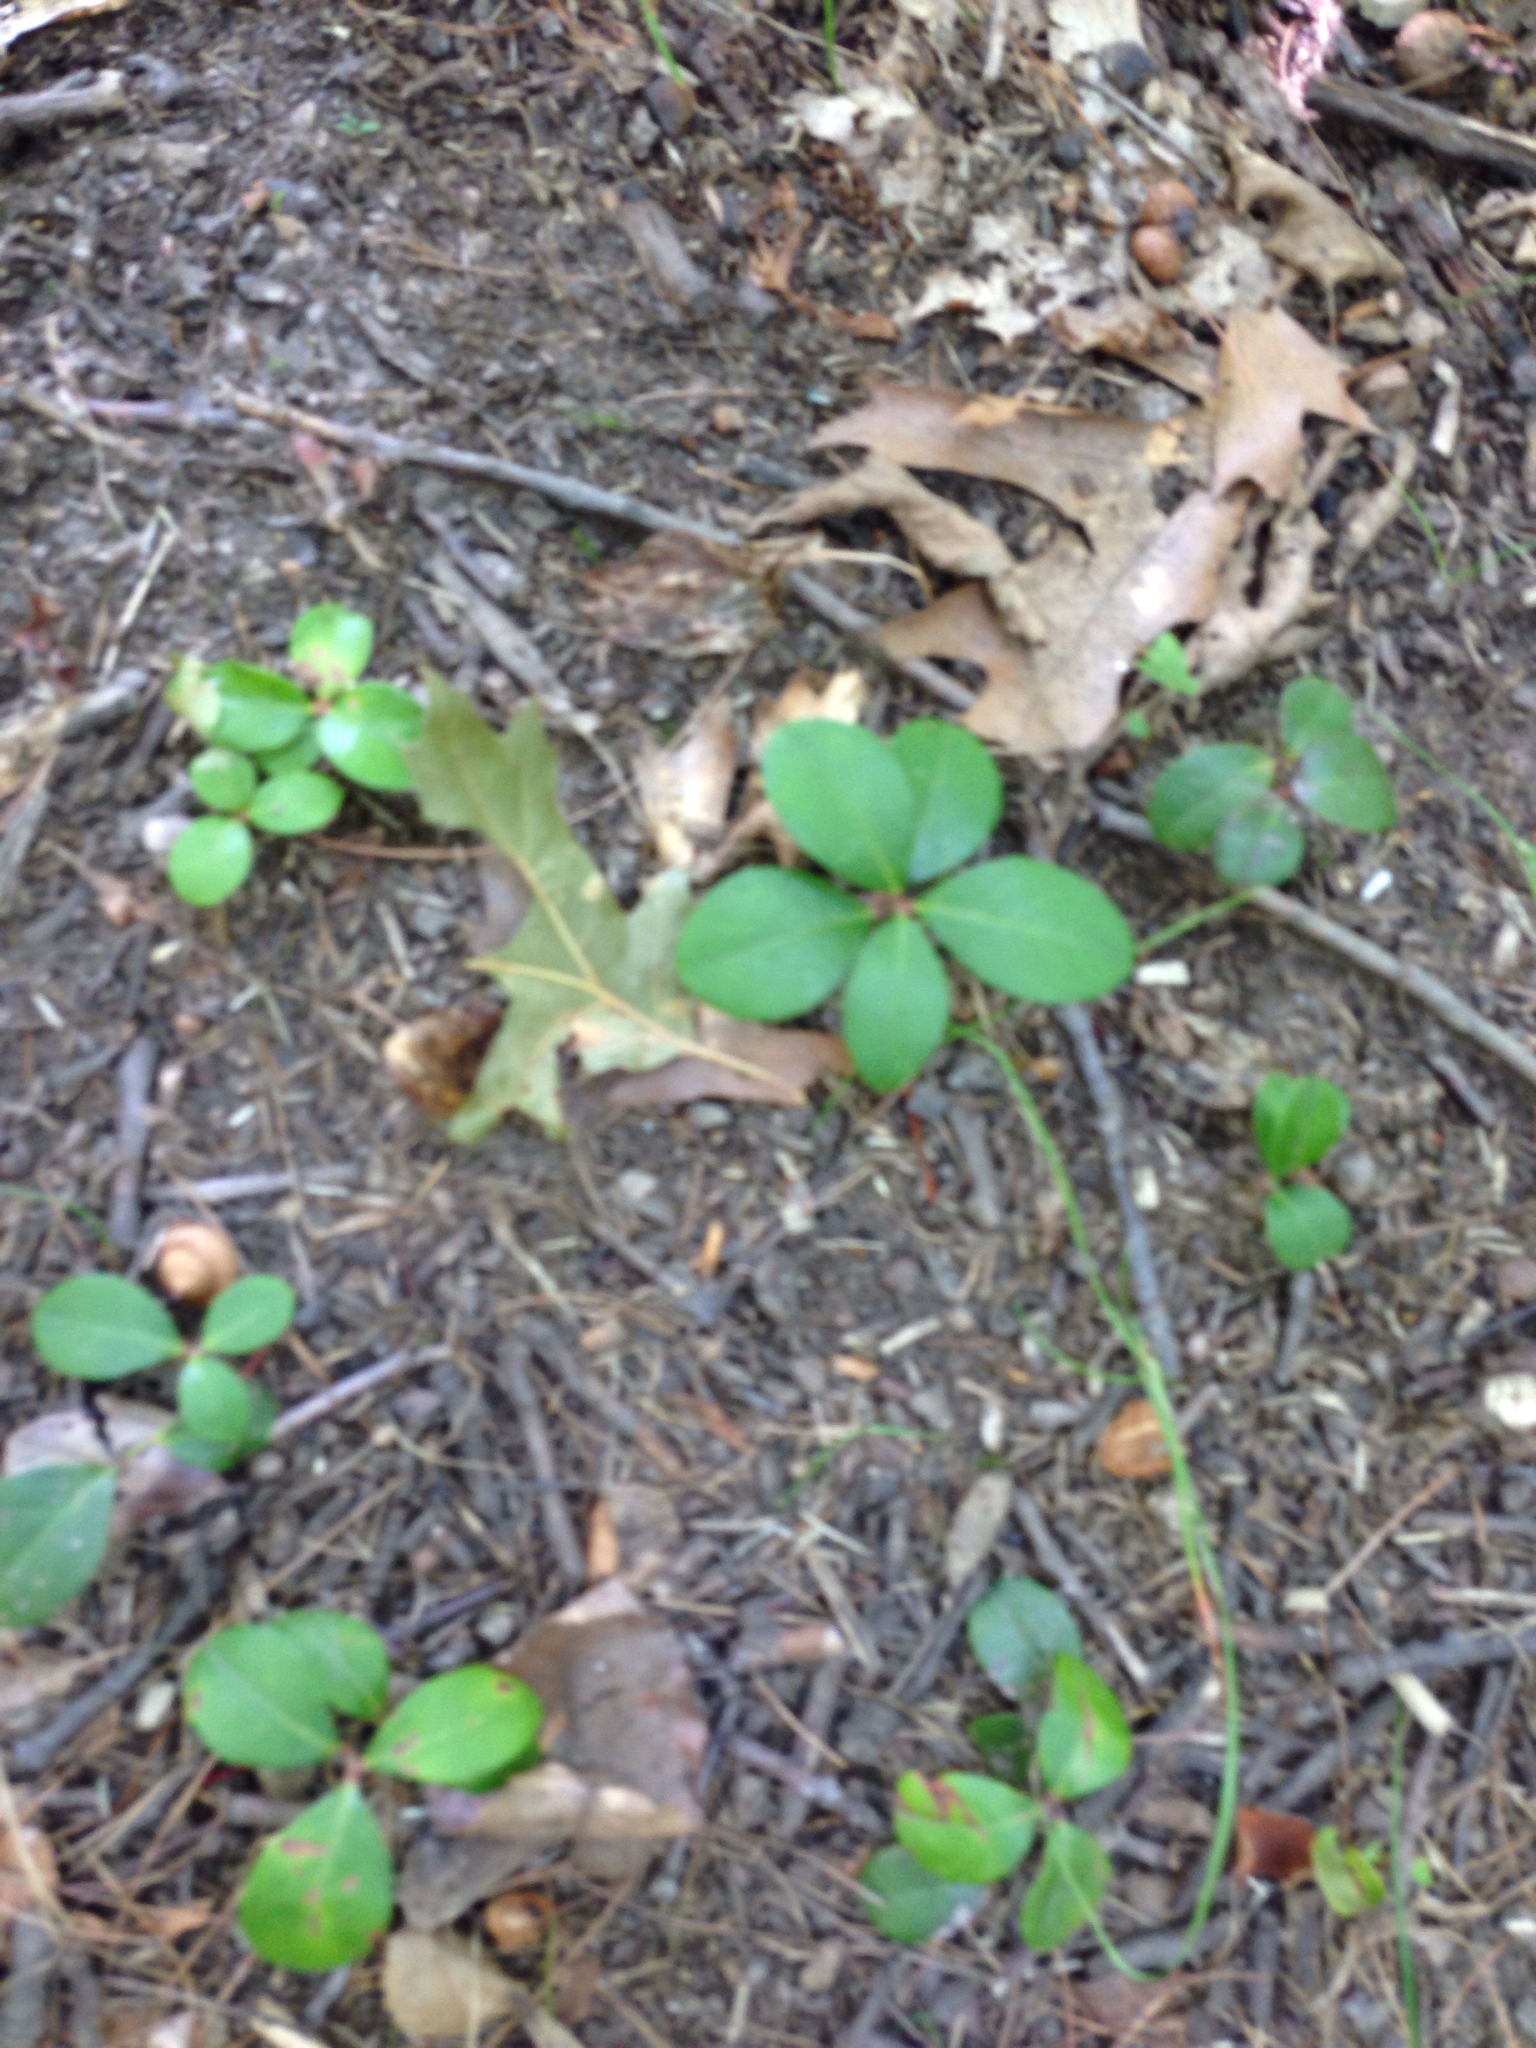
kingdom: Plantae
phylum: Tracheophyta
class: Magnoliopsida
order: Ericales
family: Ericaceae
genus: Gaultheria
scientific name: Gaultheria procumbens
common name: Checkerberry
